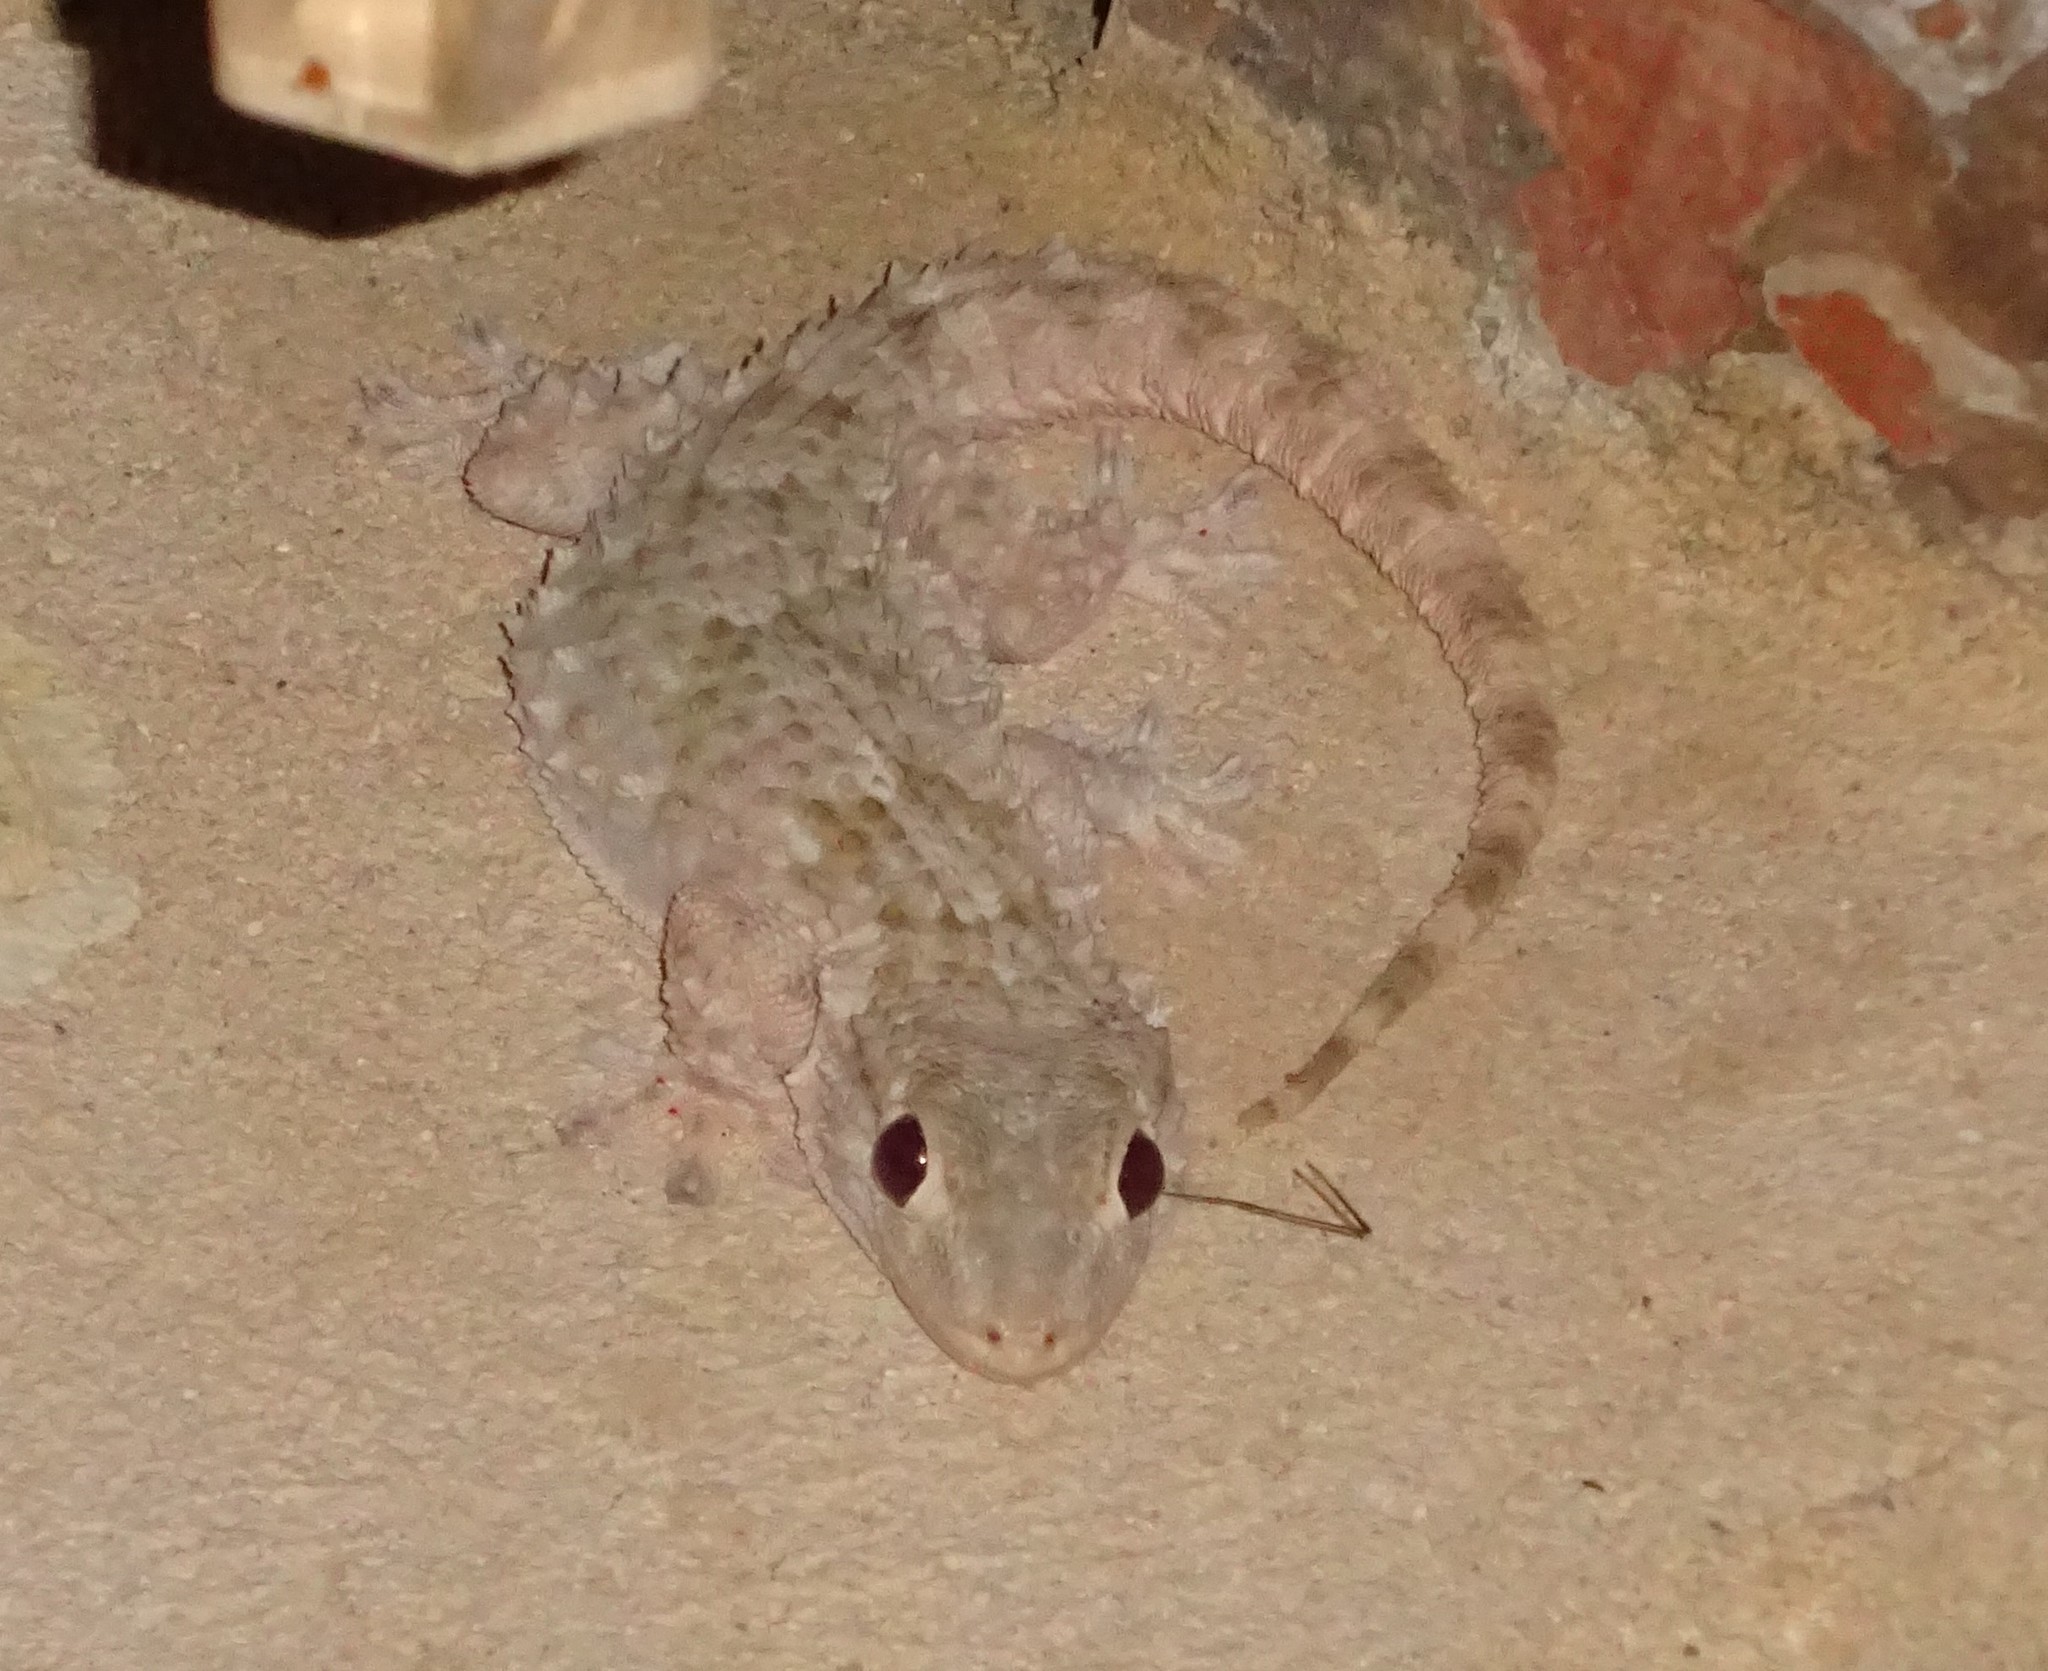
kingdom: Animalia
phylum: Chordata
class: Squamata
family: Phyllodactylidae
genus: Tarentola
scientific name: Tarentola mauritanica
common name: Moorish gecko
